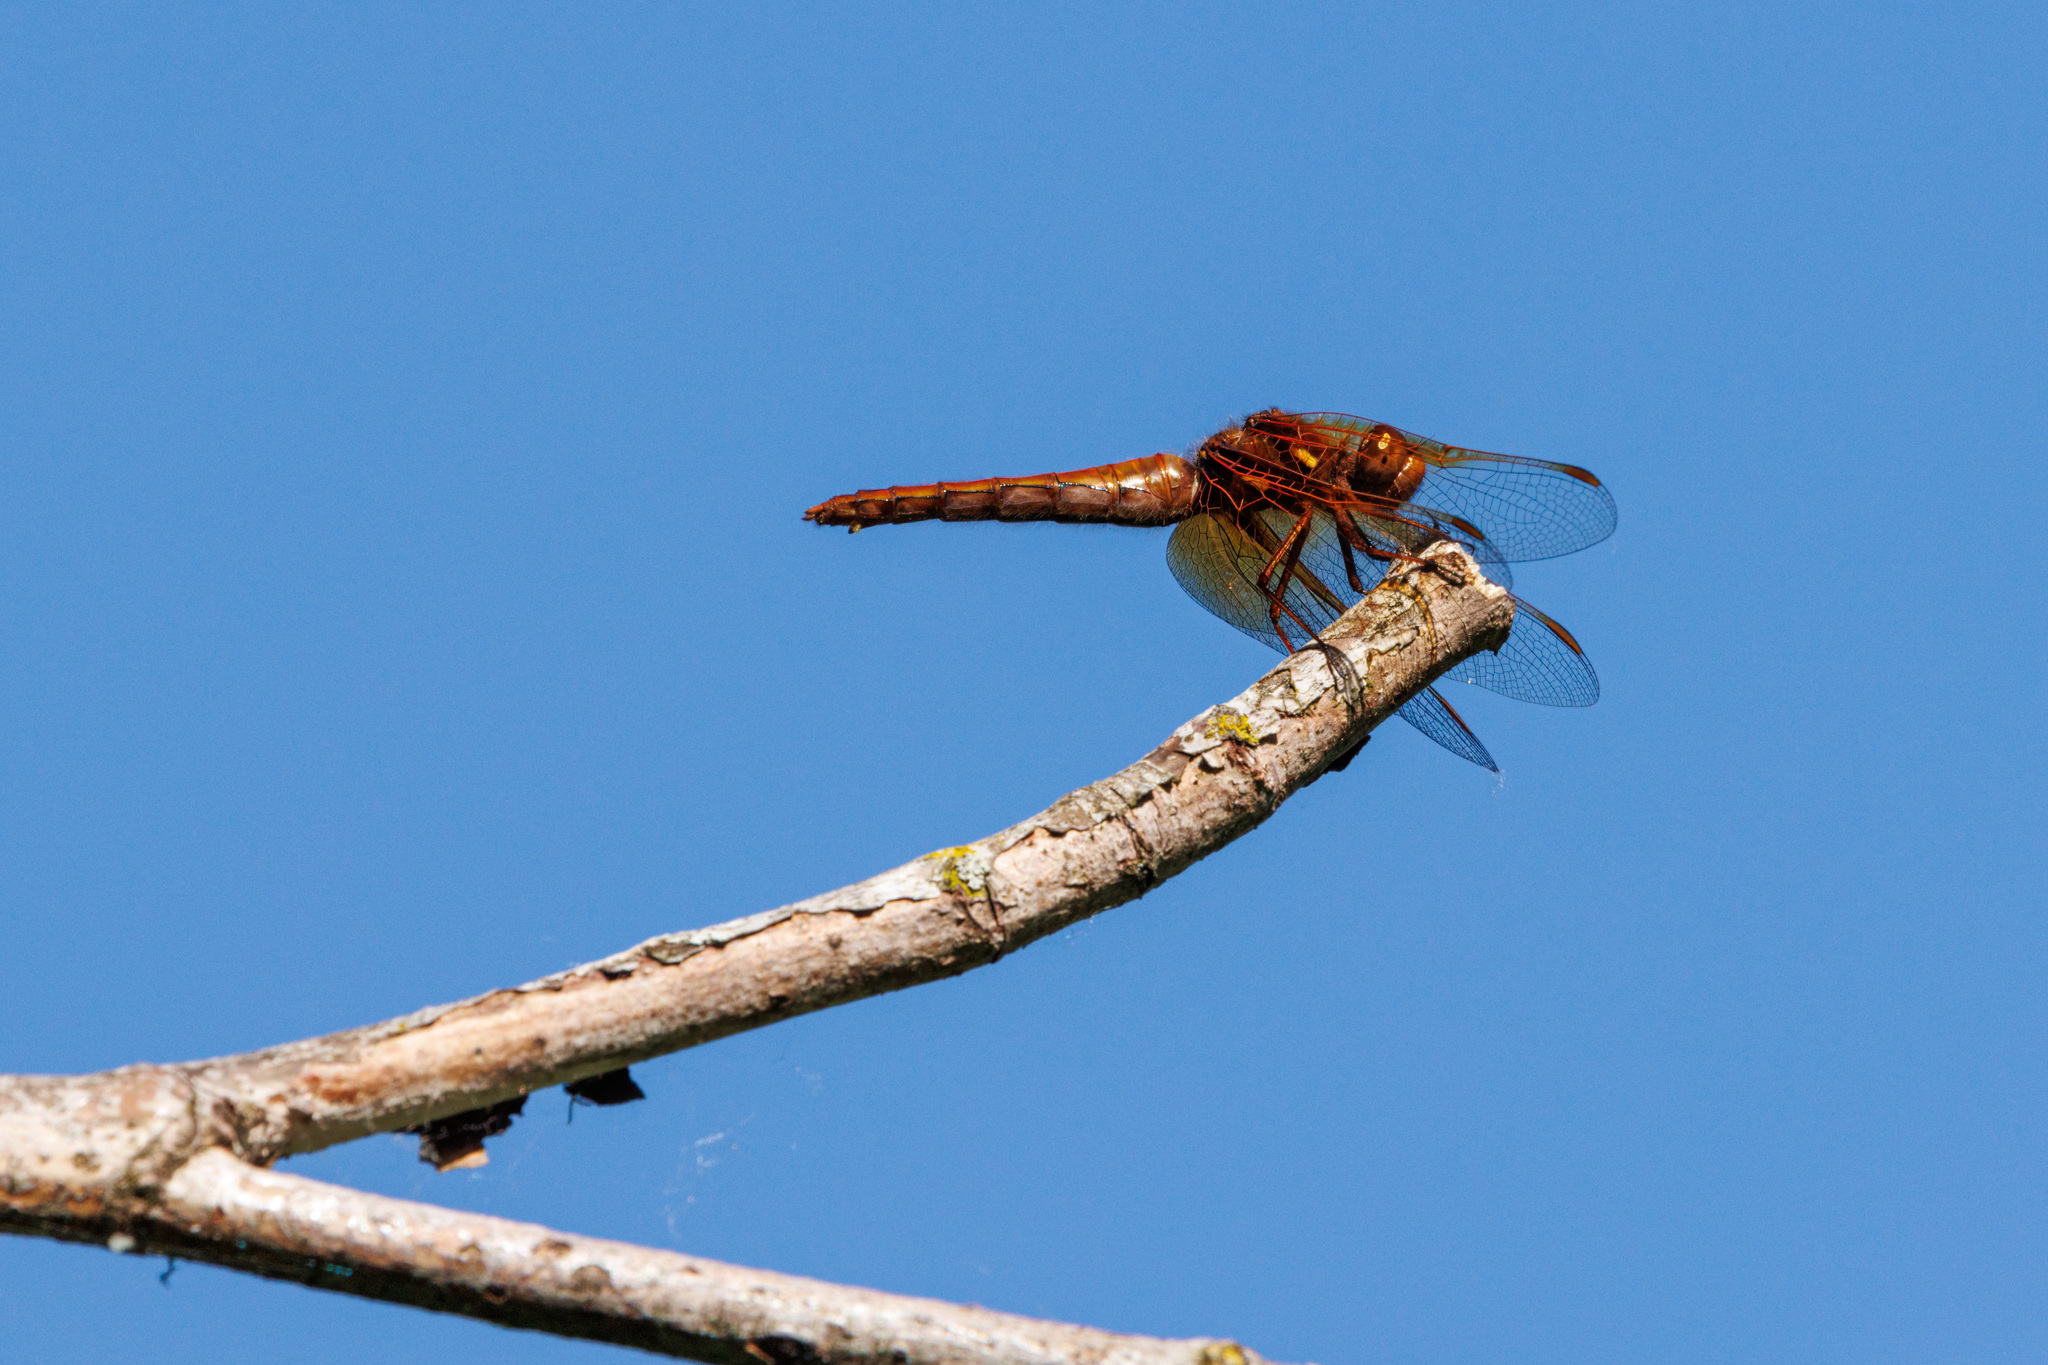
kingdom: Animalia
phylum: Arthropoda
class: Insecta
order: Odonata
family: Libellulidae
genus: Sympetrum
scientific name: Sympetrum illotum
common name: Cardinal meadowhawk
